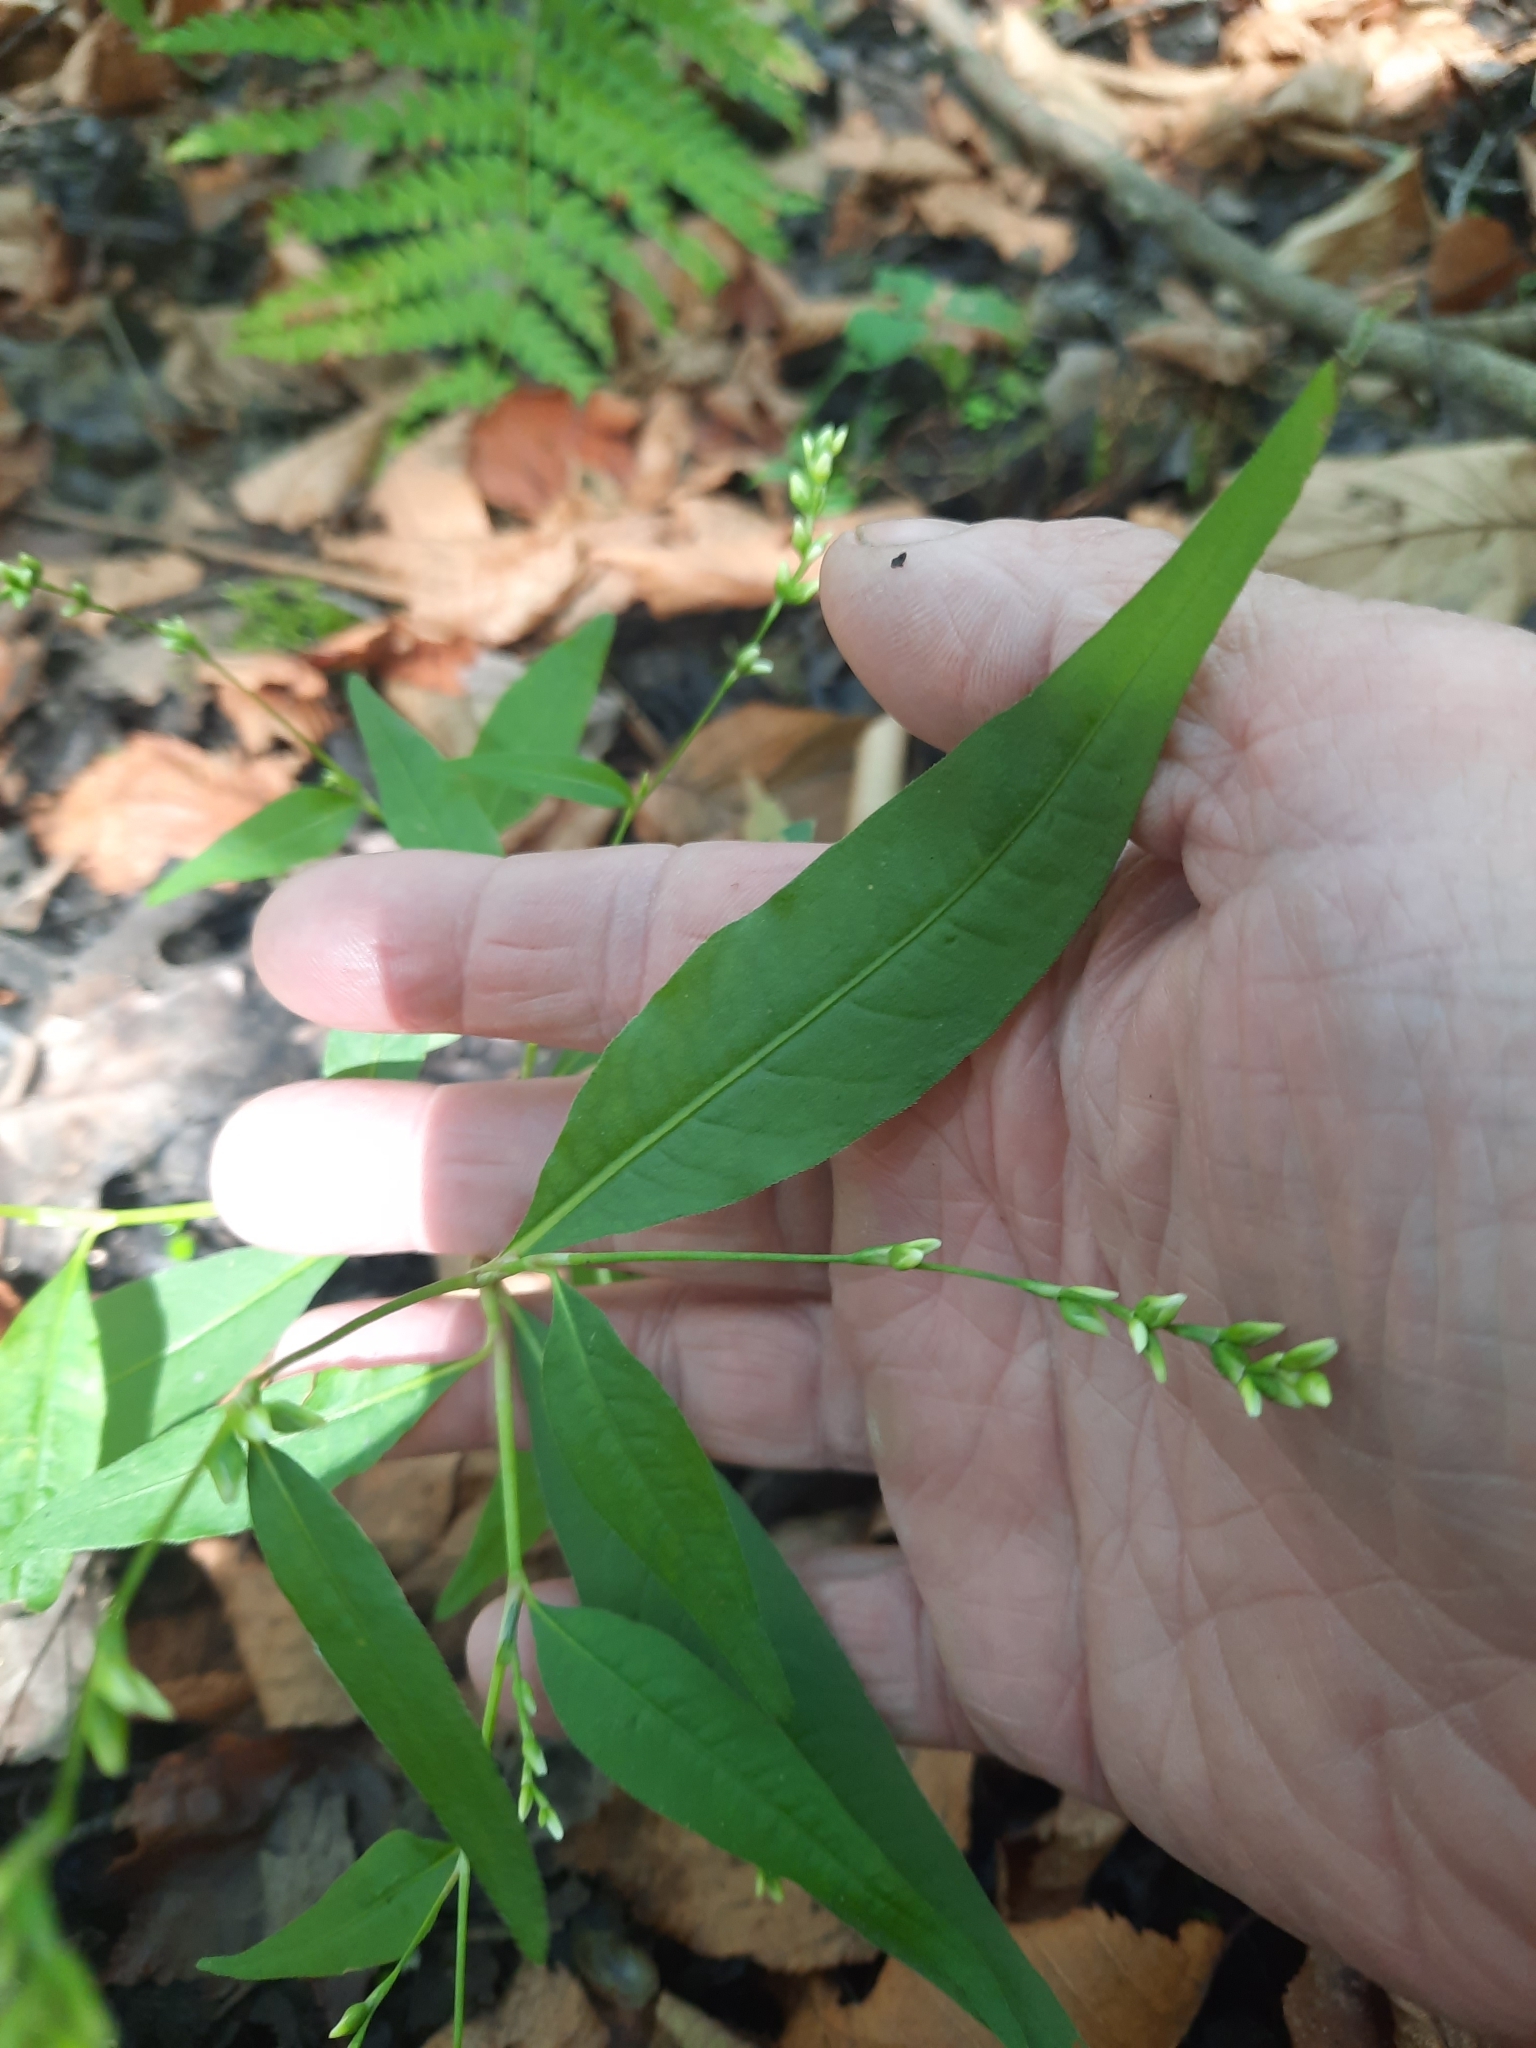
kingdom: Plantae
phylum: Tracheophyta
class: Magnoliopsida
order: Caryophyllales
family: Polygonaceae
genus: Persicaria
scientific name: Persicaria punctata
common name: Dotted smartweed
